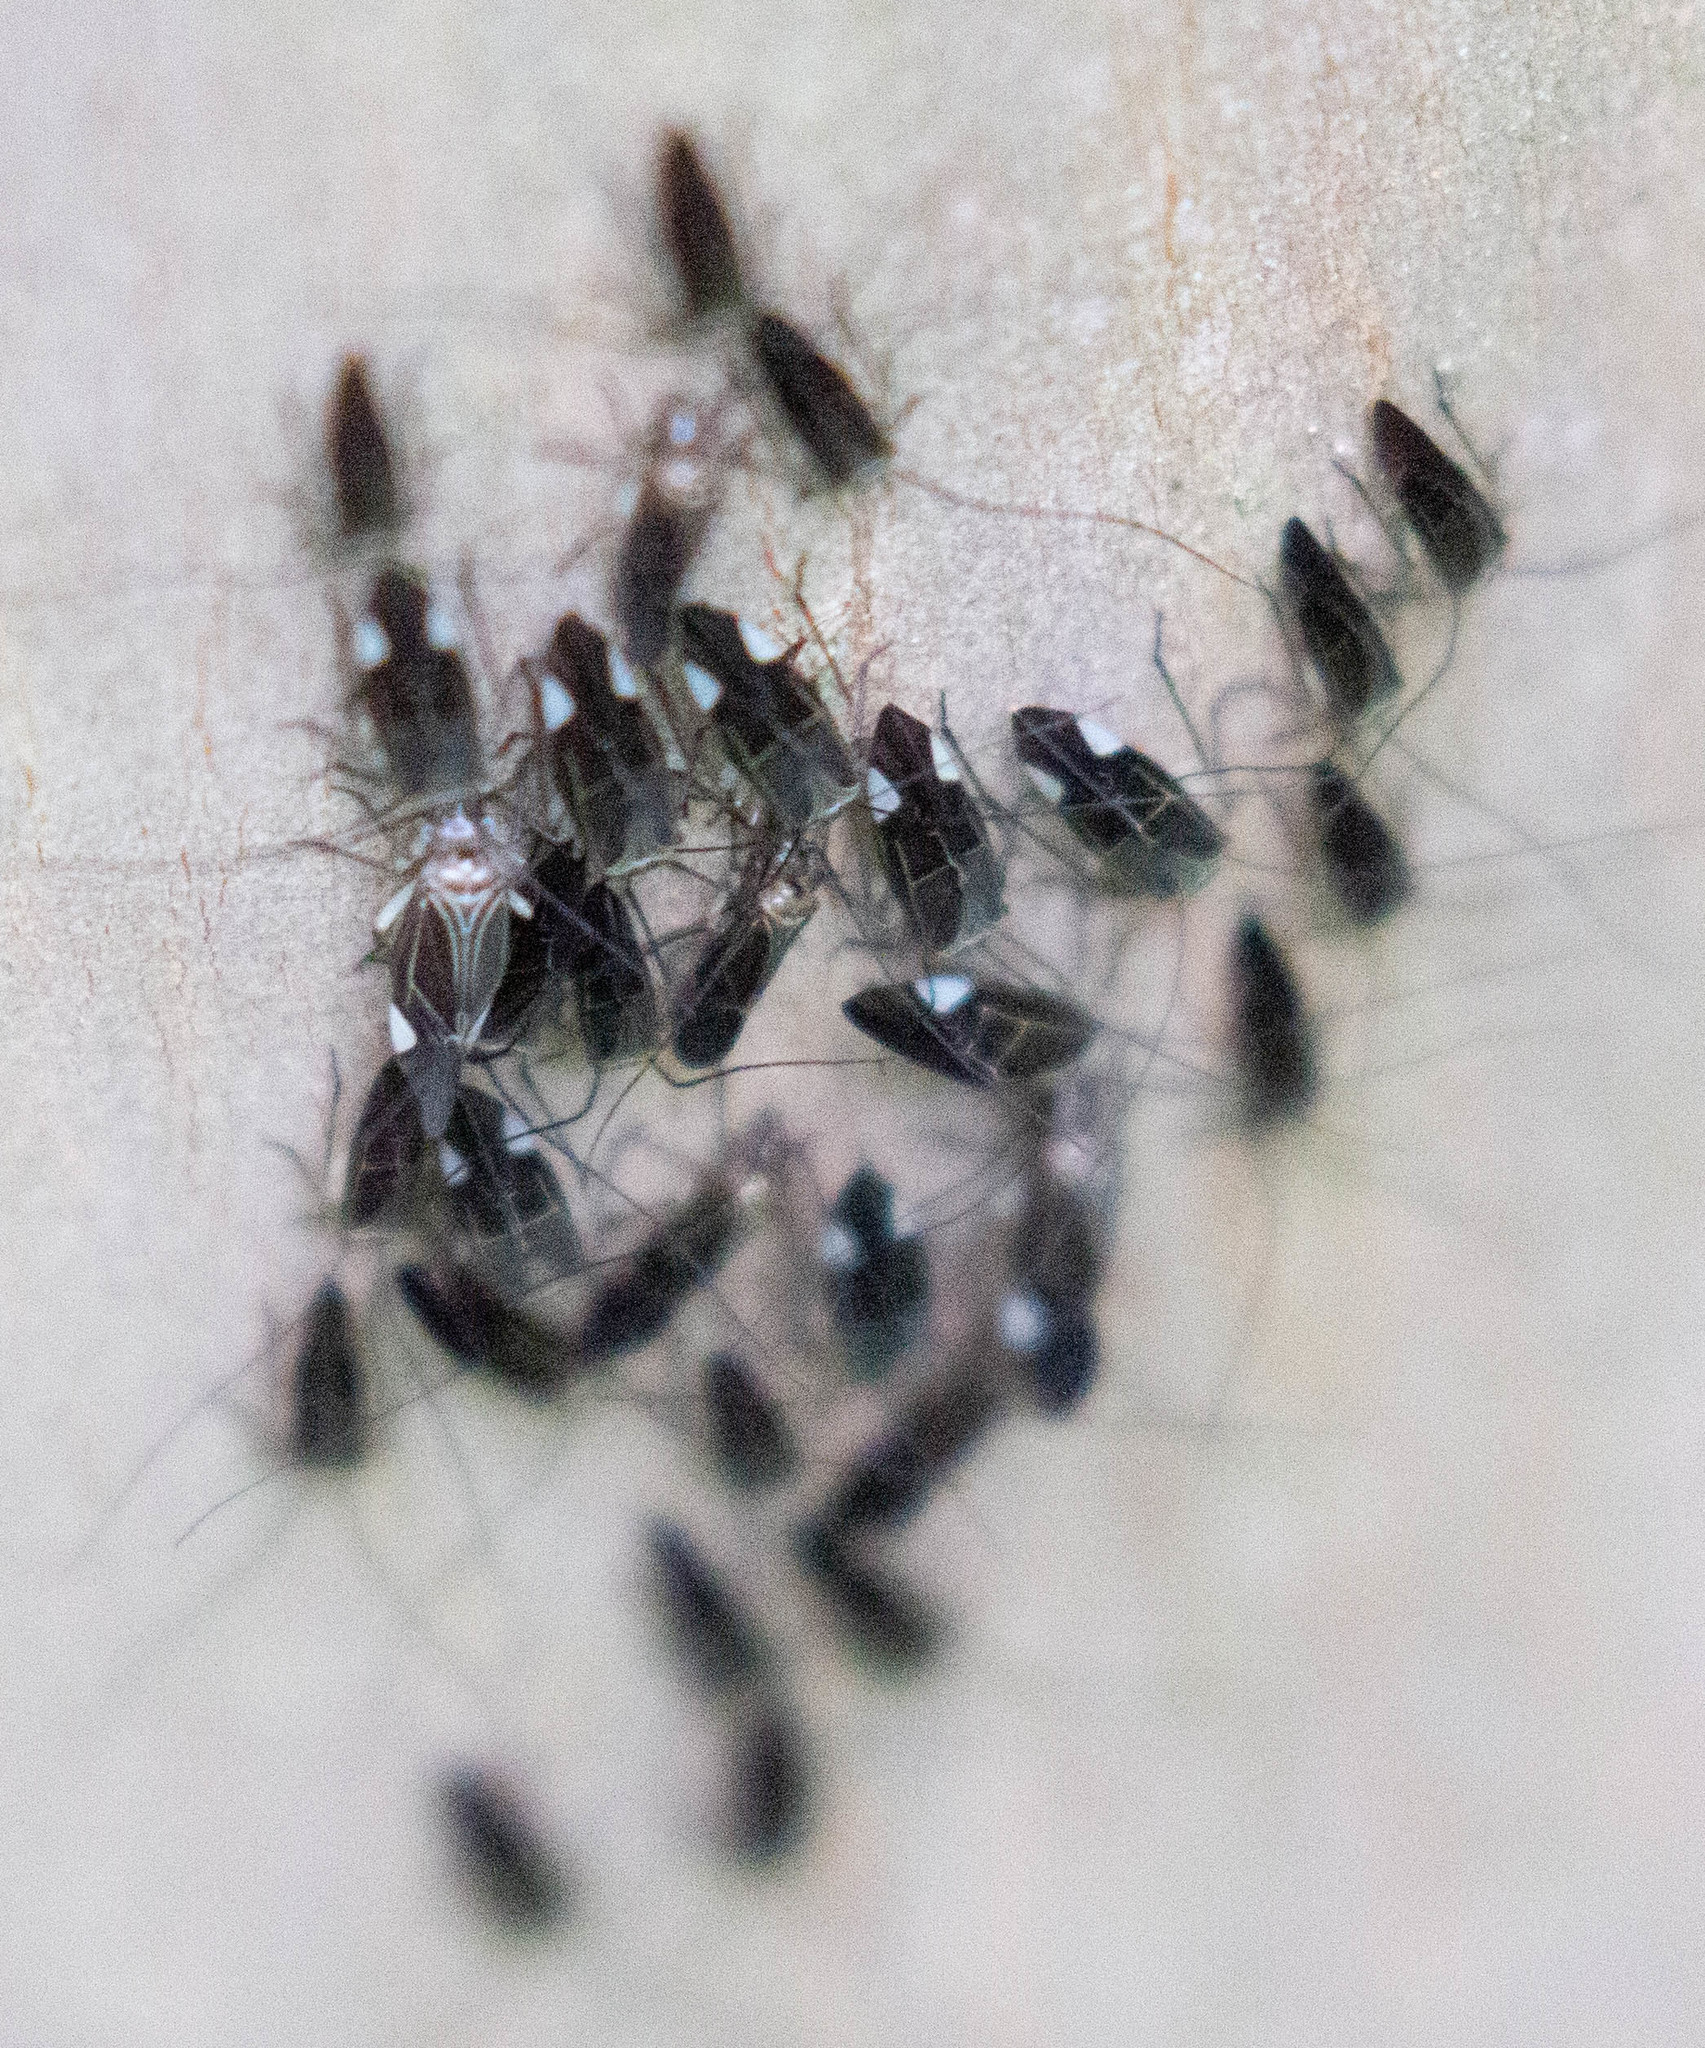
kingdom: Animalia
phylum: Arthropoda
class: Insecta
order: Psocodea
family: Psocidae
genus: Cerastipsocus
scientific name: Cerastipsocus venosus
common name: Tree cattle
